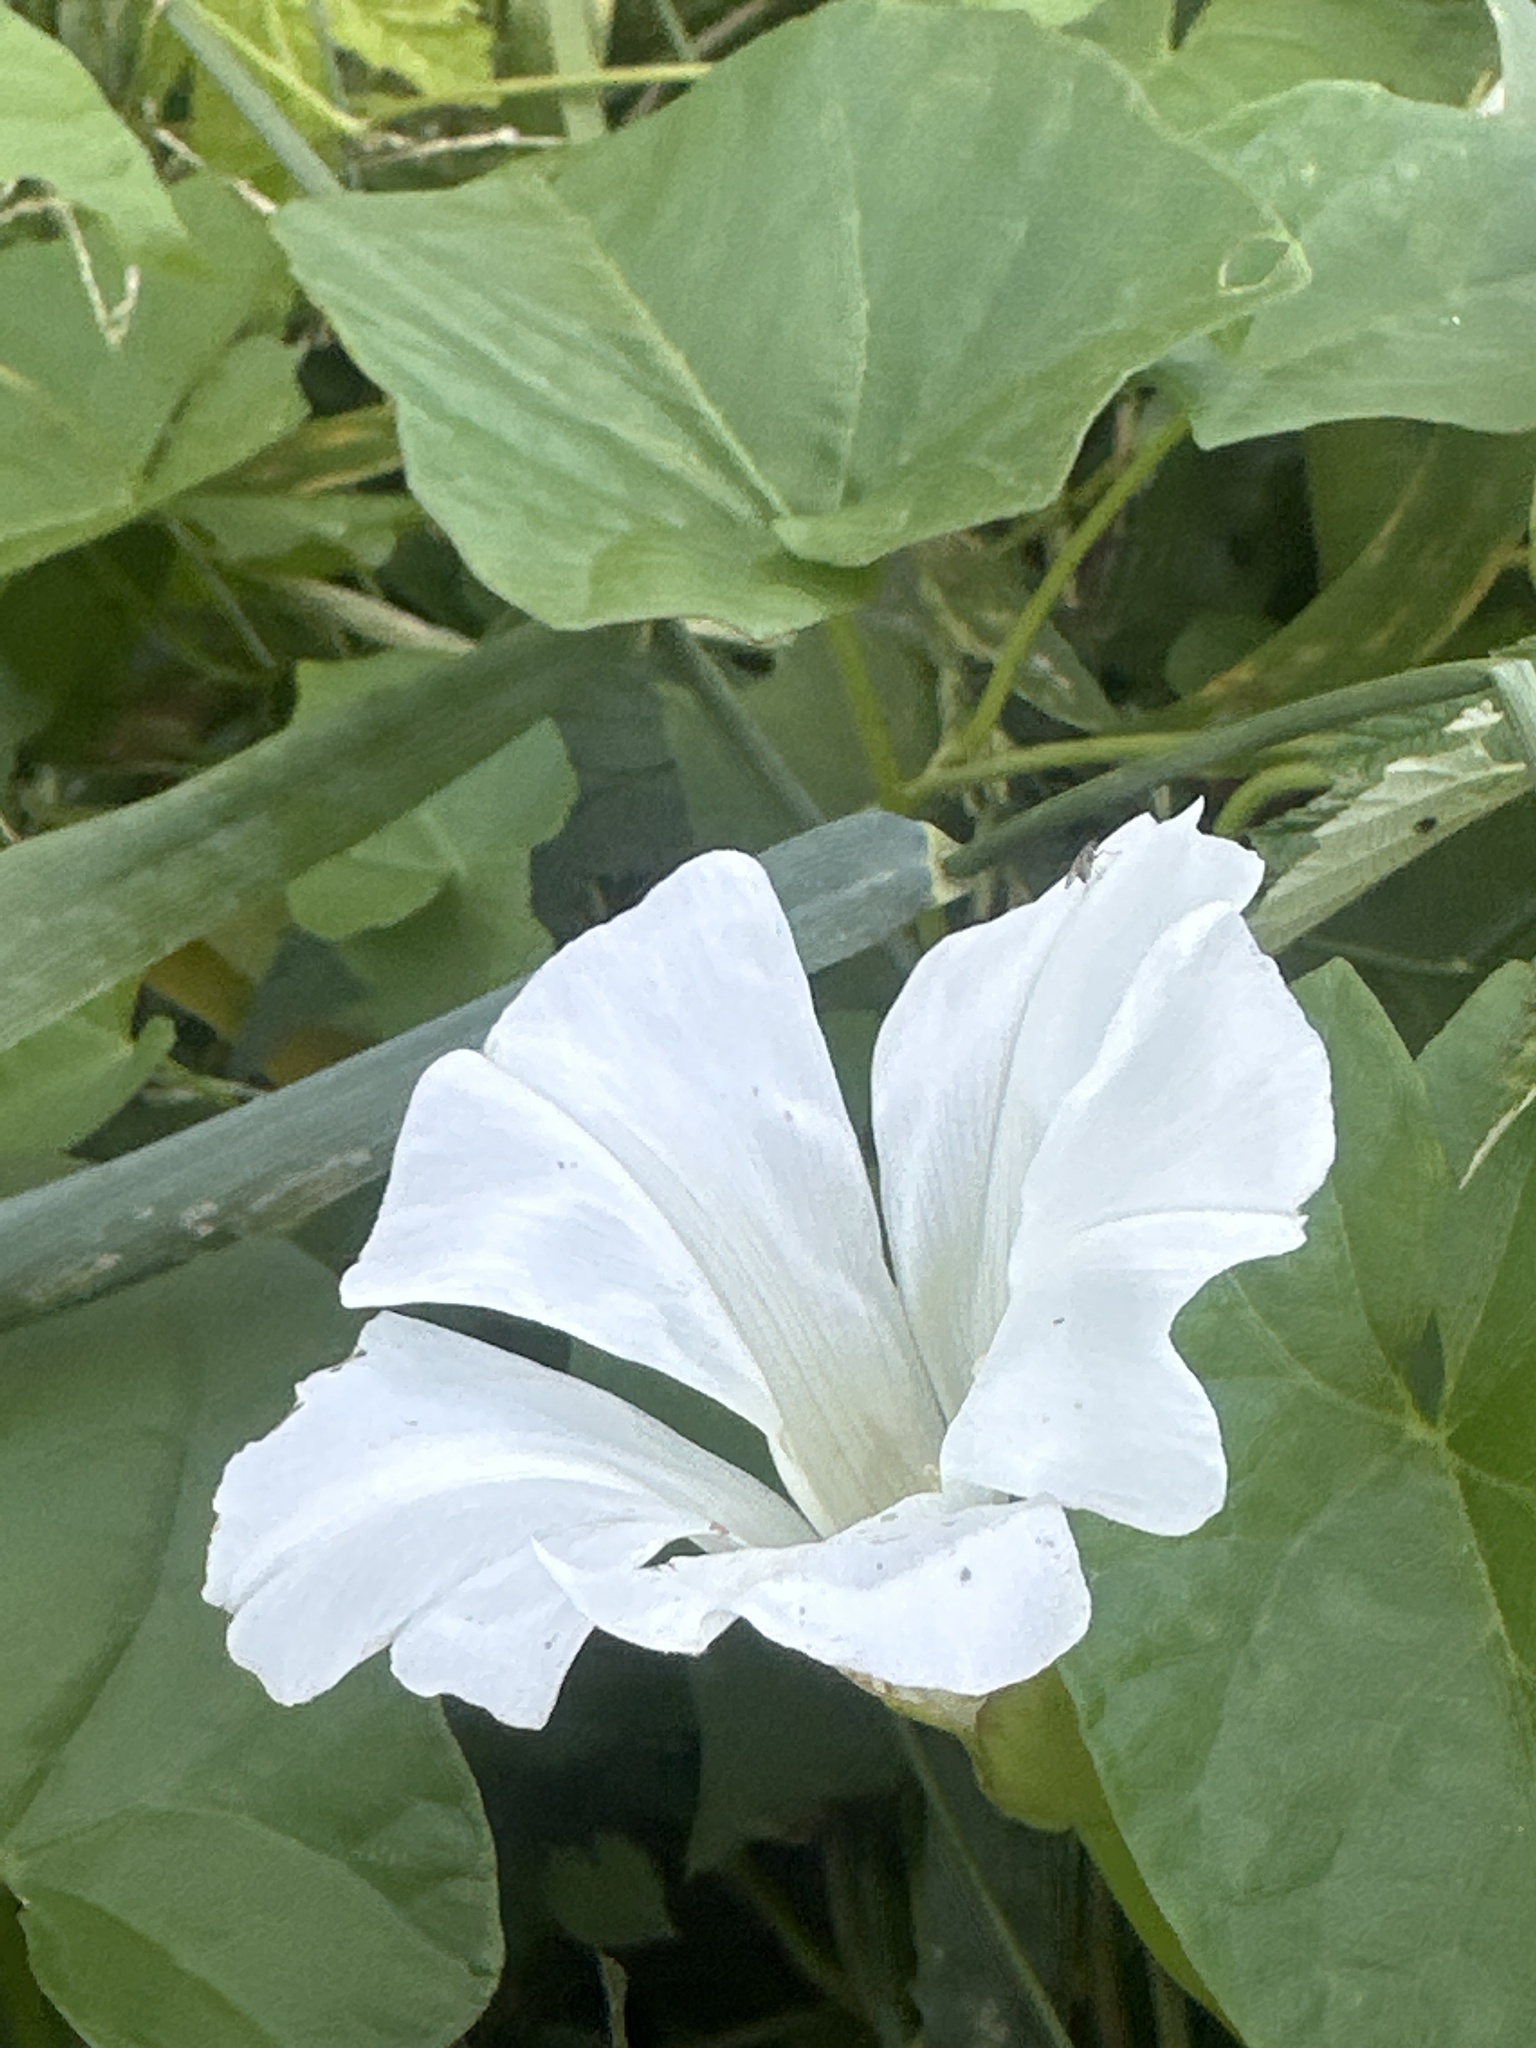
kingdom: Plantae
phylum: Tracheophyta
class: Magnoliopsida
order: Solanales
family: Convolvulaceae
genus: Calystegia
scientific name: Calystegia sepium
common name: Hedge bindweed
